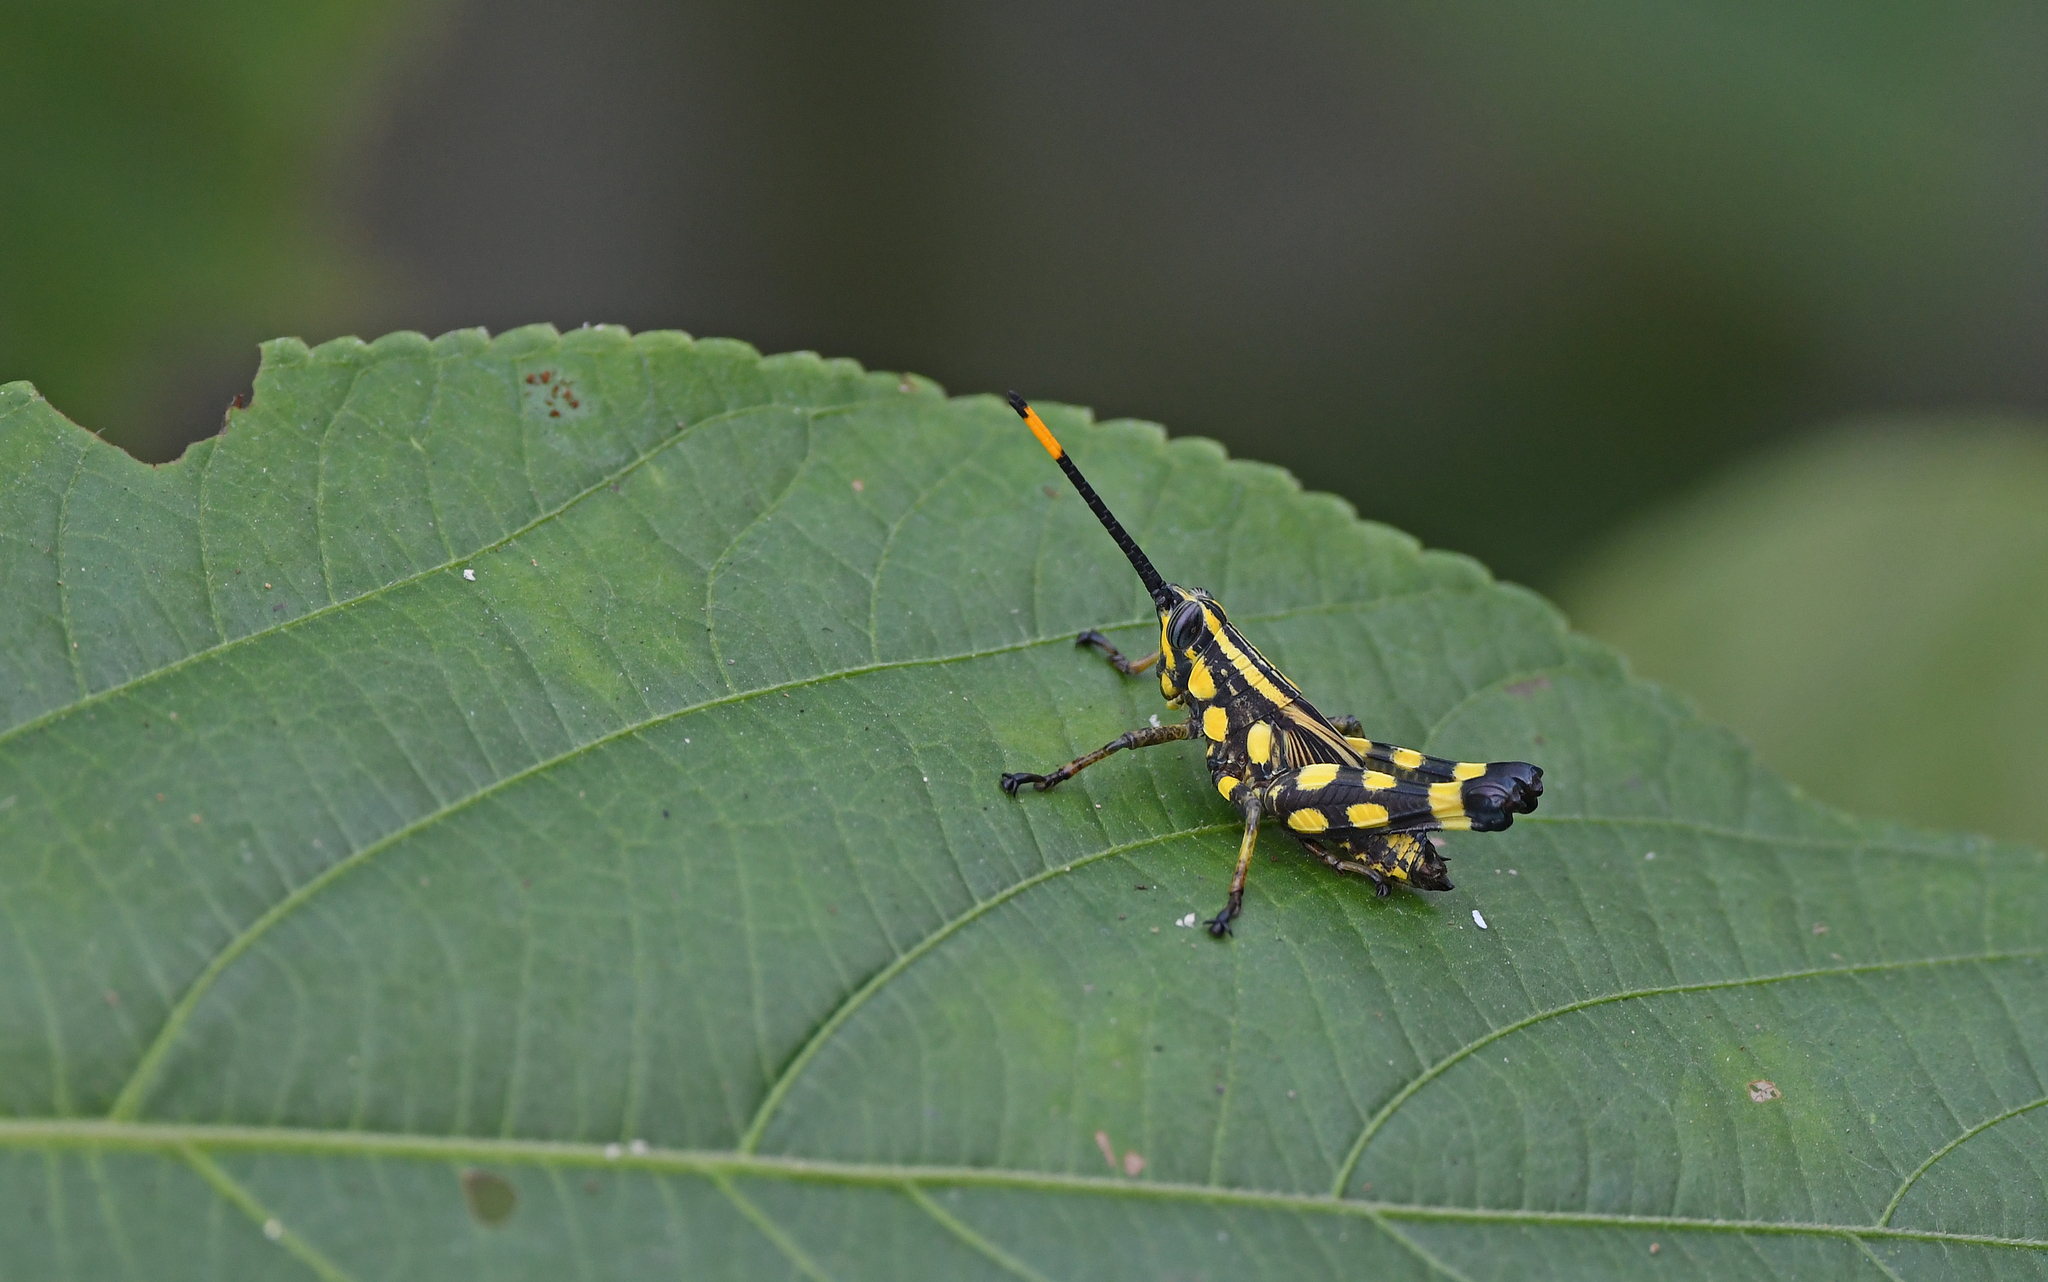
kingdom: Animalia
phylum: Arthropoda
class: Insecta
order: Orthoptera
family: Acrididae
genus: Rhopsotettix
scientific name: Rhopsotettix consummatus
